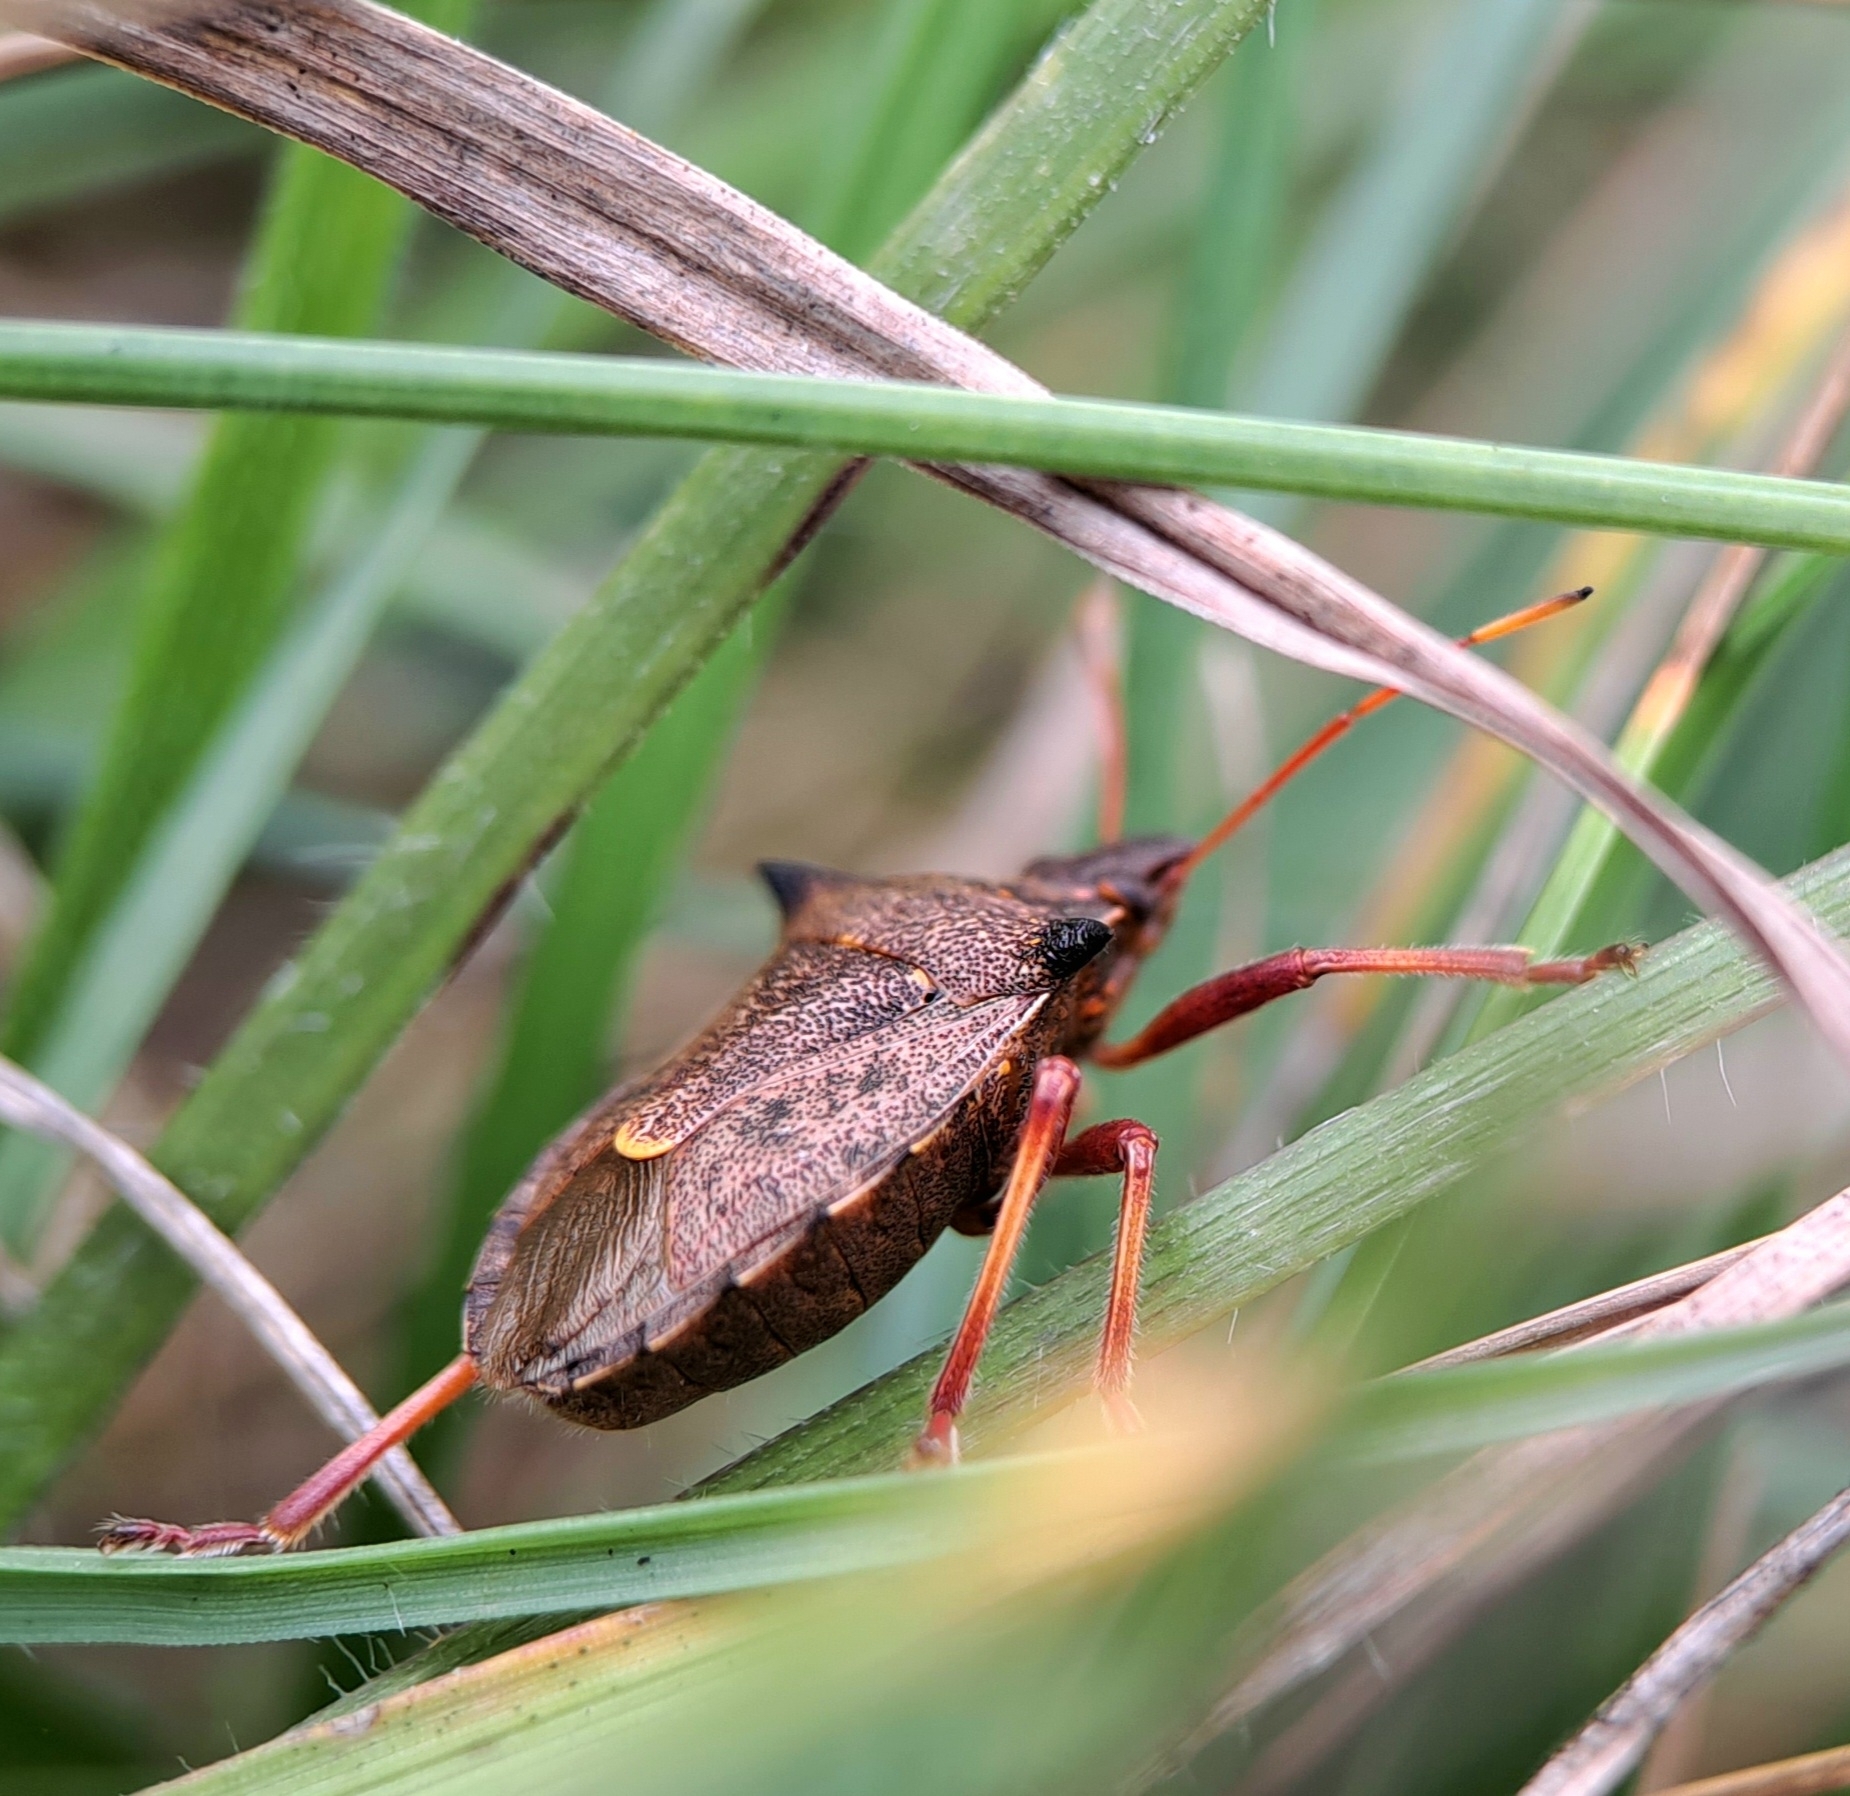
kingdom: Animalia
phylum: Arthropoda
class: Insecta
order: Hemiptera
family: Pentatomidae
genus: Picromerus
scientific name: Picromerus bidens
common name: Spiked shieldbug
